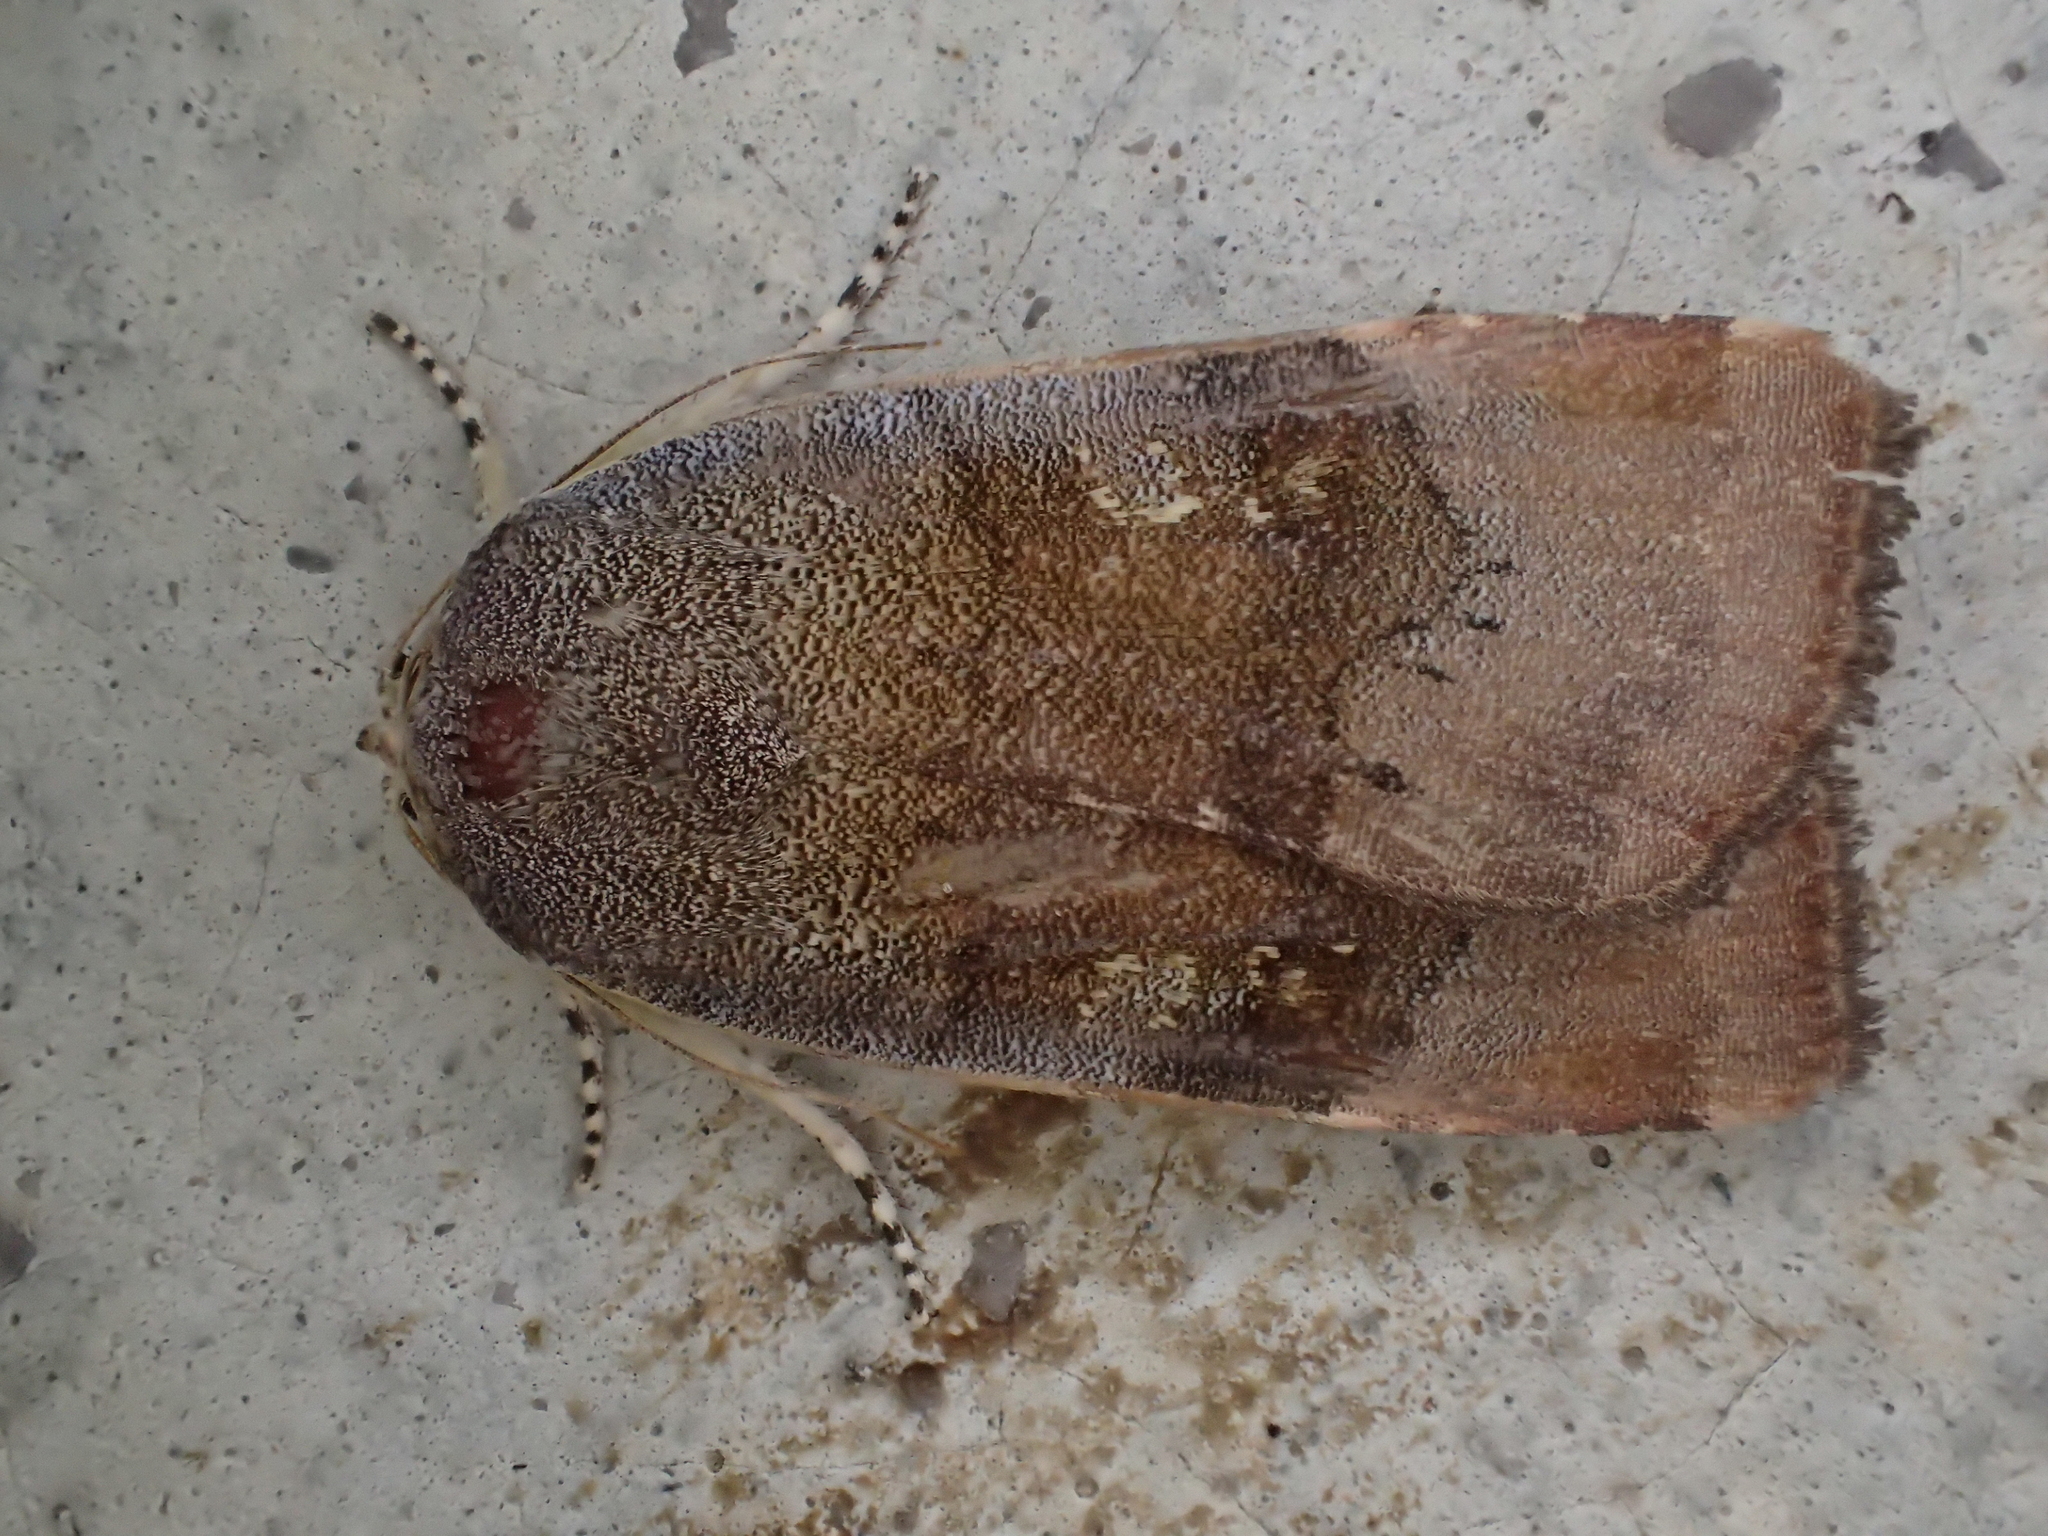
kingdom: Animalia
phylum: Arthropoda
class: Insecta
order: Lepidoptera
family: Noctuidae
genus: Noctua
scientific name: Noctua
